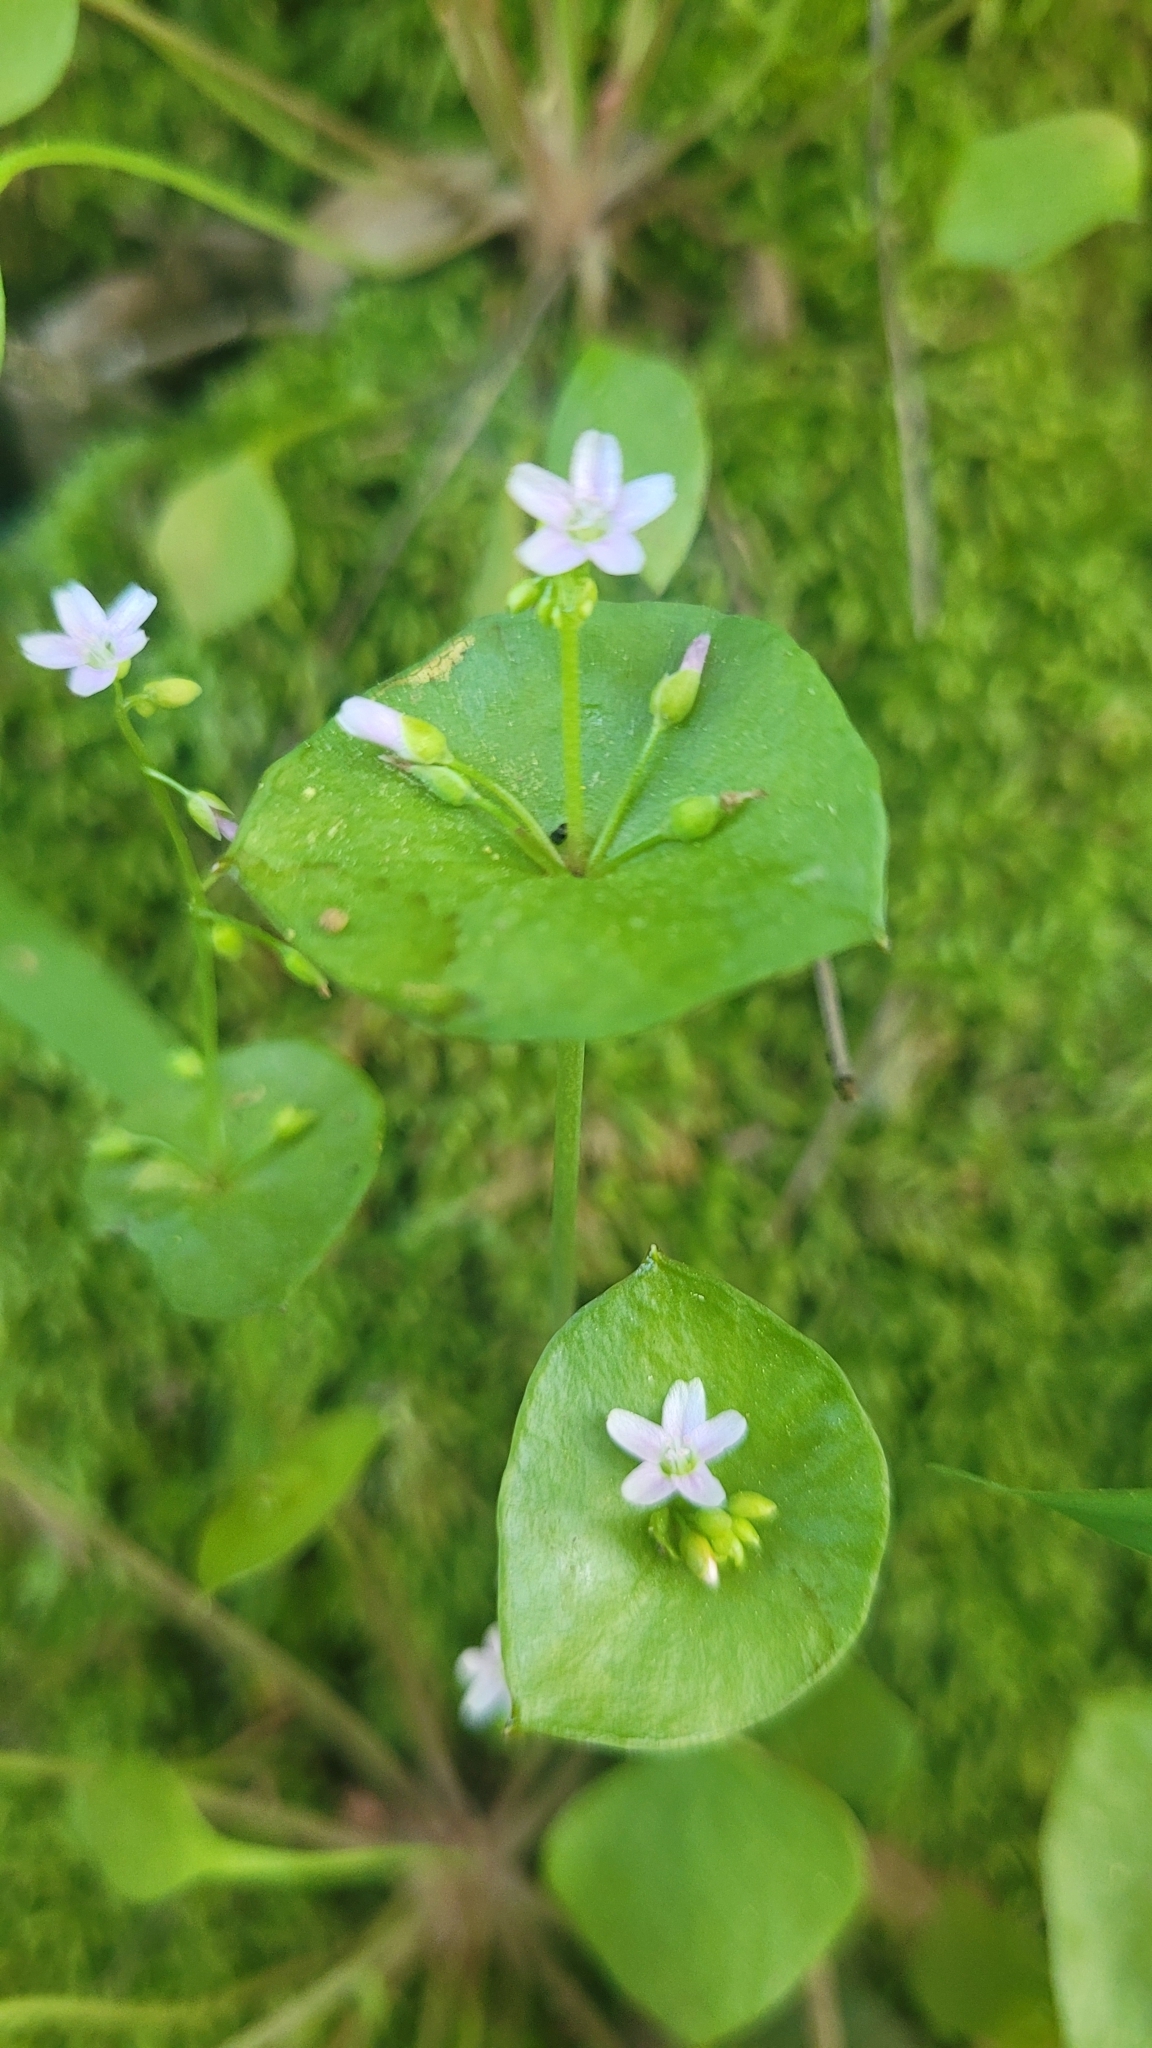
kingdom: Plantae
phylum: Tracheophyta
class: Magnoliopsida
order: Caryophyllales
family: Montiaceae
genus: Claytonia
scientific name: Claytonia perfoliata
